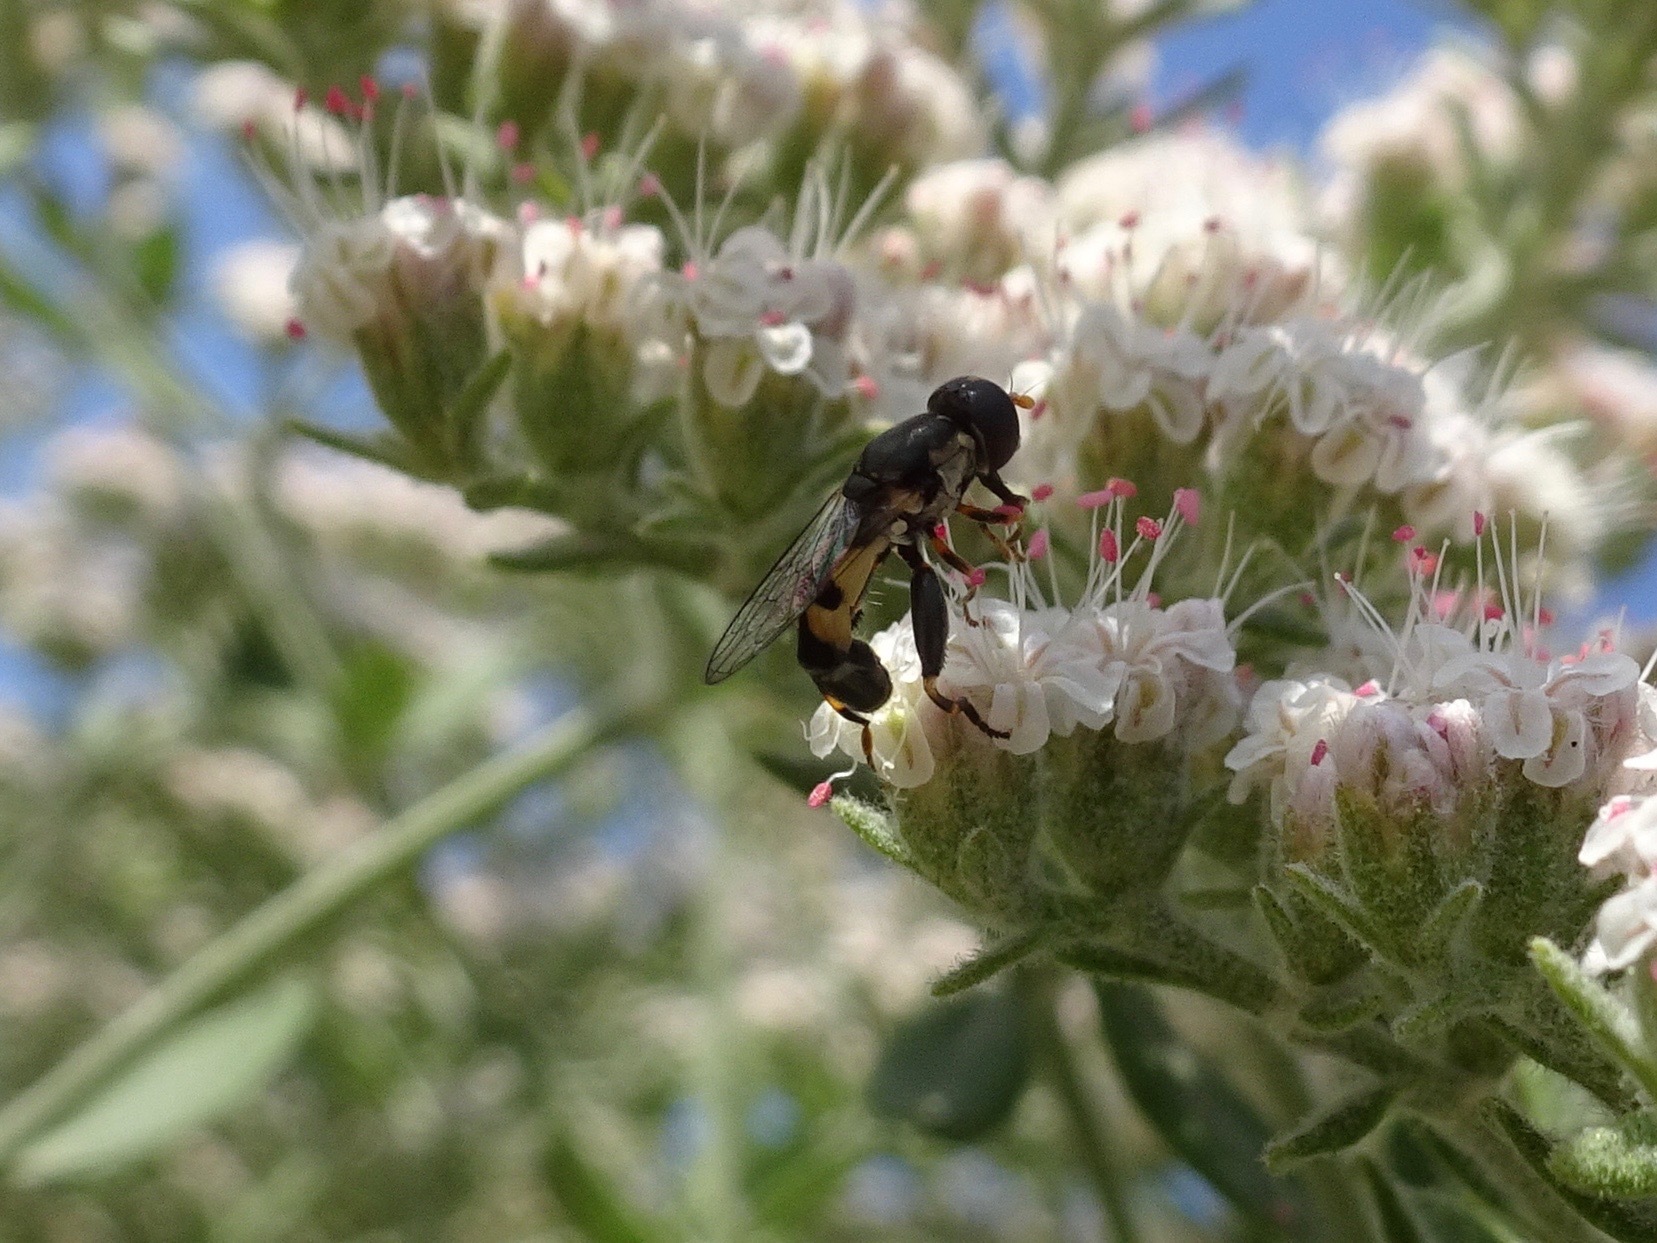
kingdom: Animalia
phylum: Arthropoda
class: Insecta
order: Diptera
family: Syrphidae
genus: Syritta
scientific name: Syritta pipiens
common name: Hover fly
